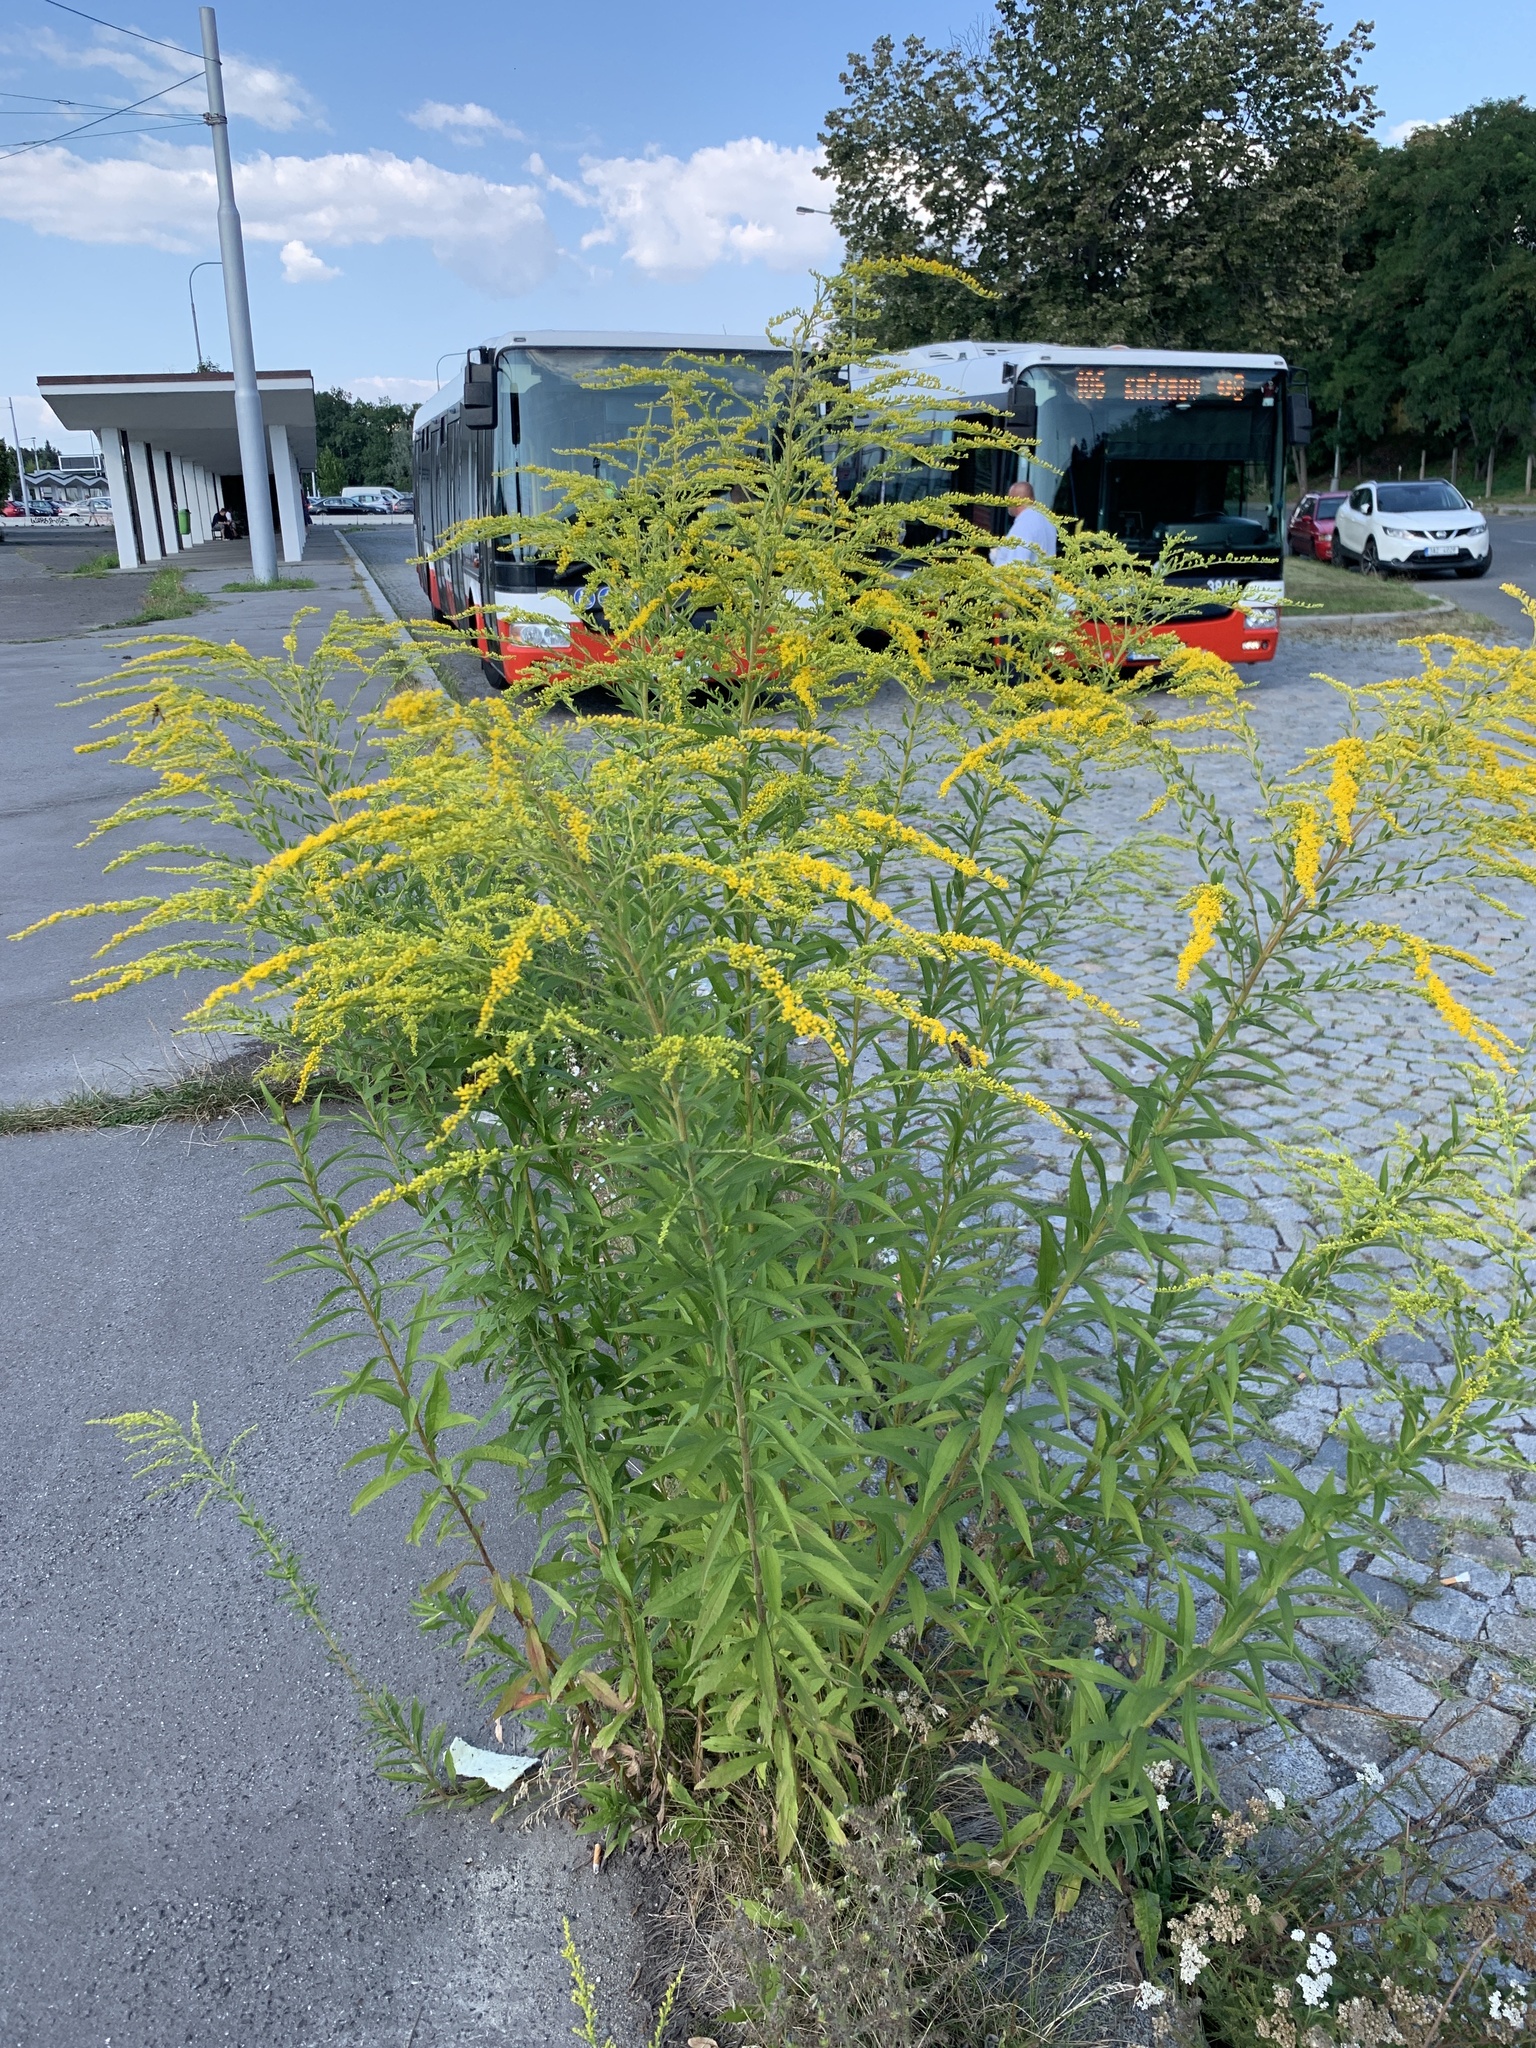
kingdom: Plantae
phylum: Tracheophyta
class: Magnoliopsida
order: Asterales
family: Asteraceae
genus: Solidago
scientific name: Solidago canadensis
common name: Canada goldenrod
